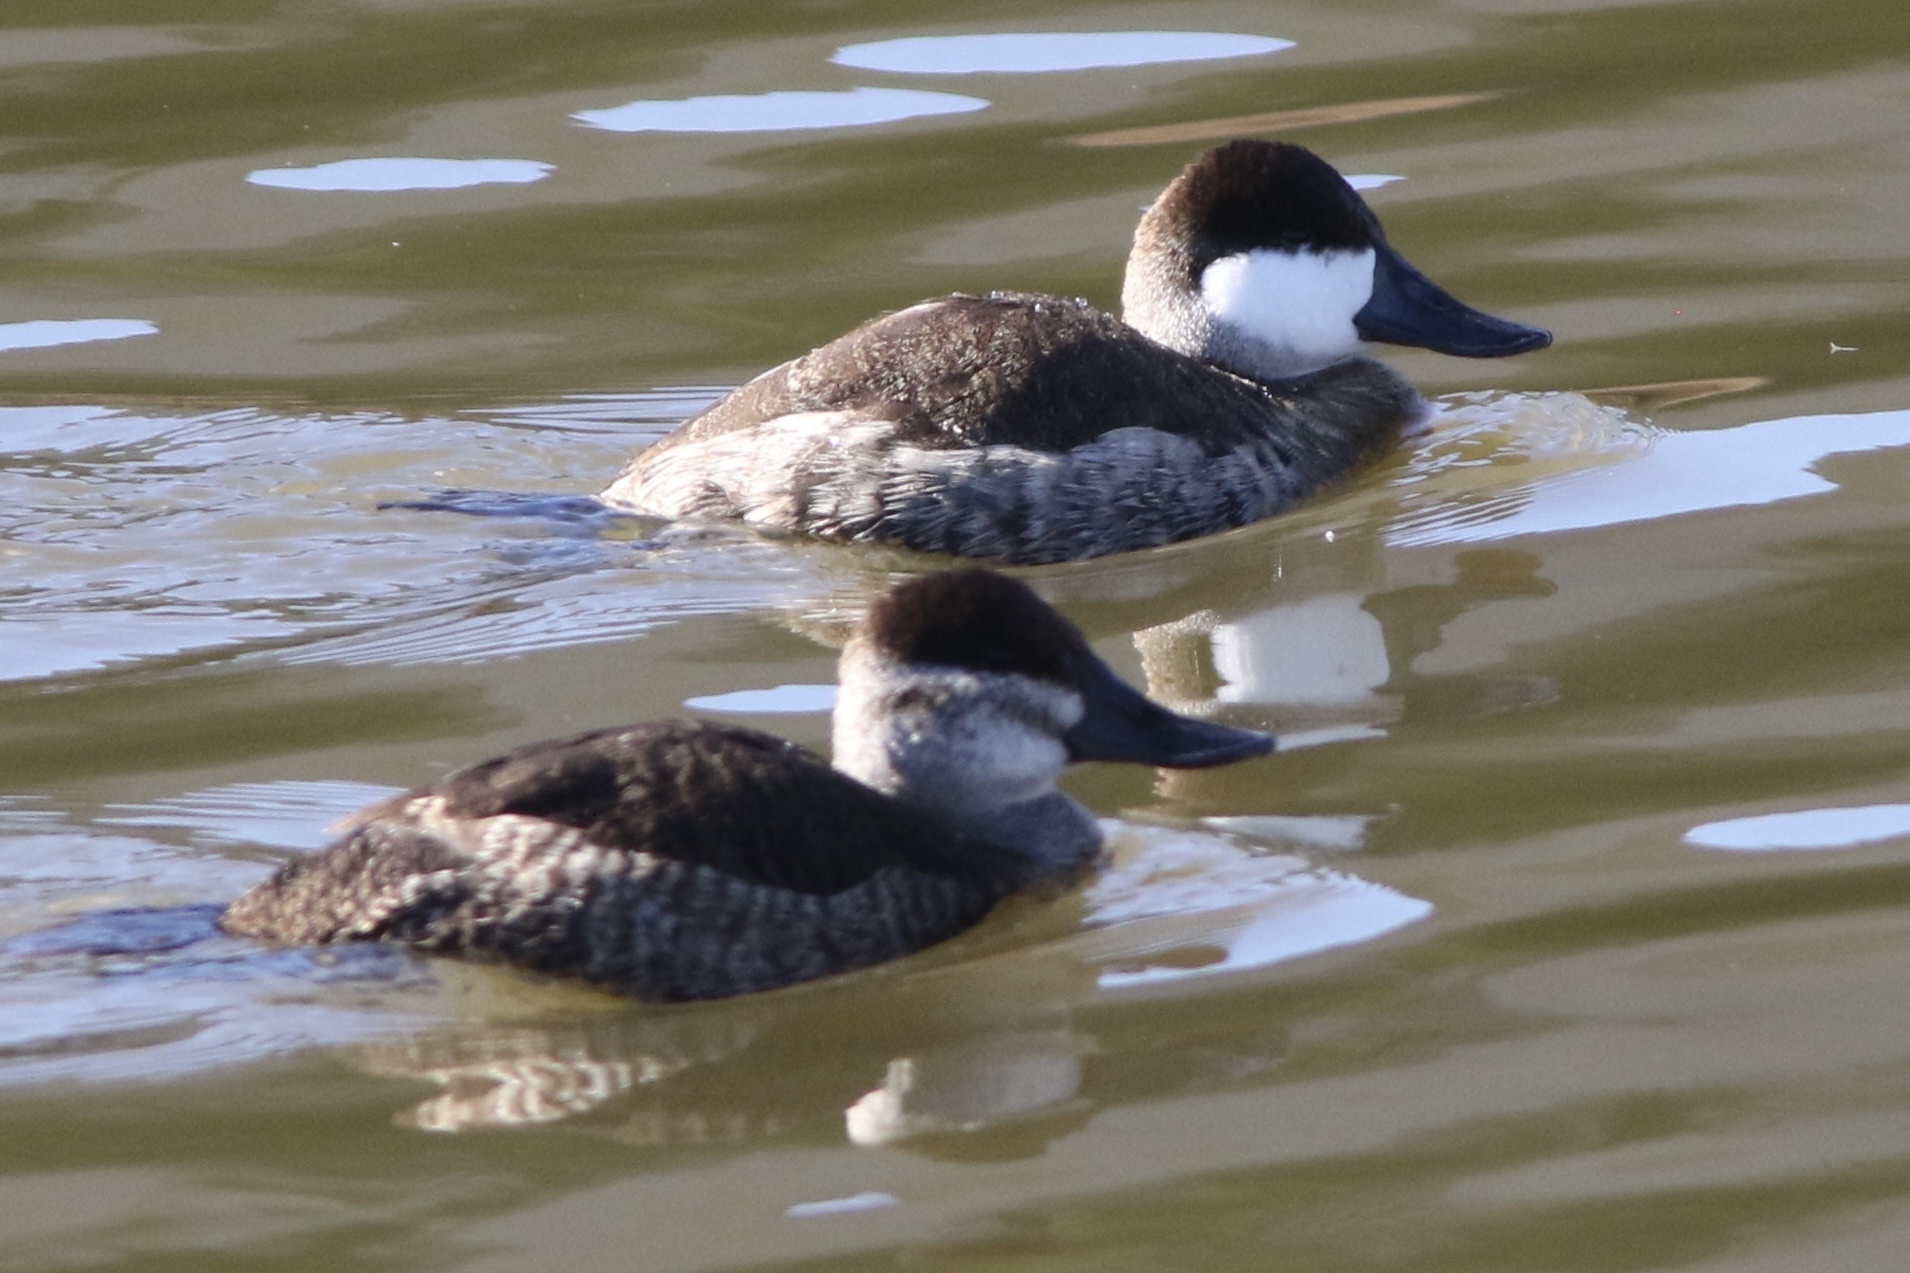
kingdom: Animalia
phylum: Chordata
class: Aves
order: Anseriformes
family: Anatidae
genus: Oxyura
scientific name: Oxyura jamaicensis
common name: Ruddy duck
